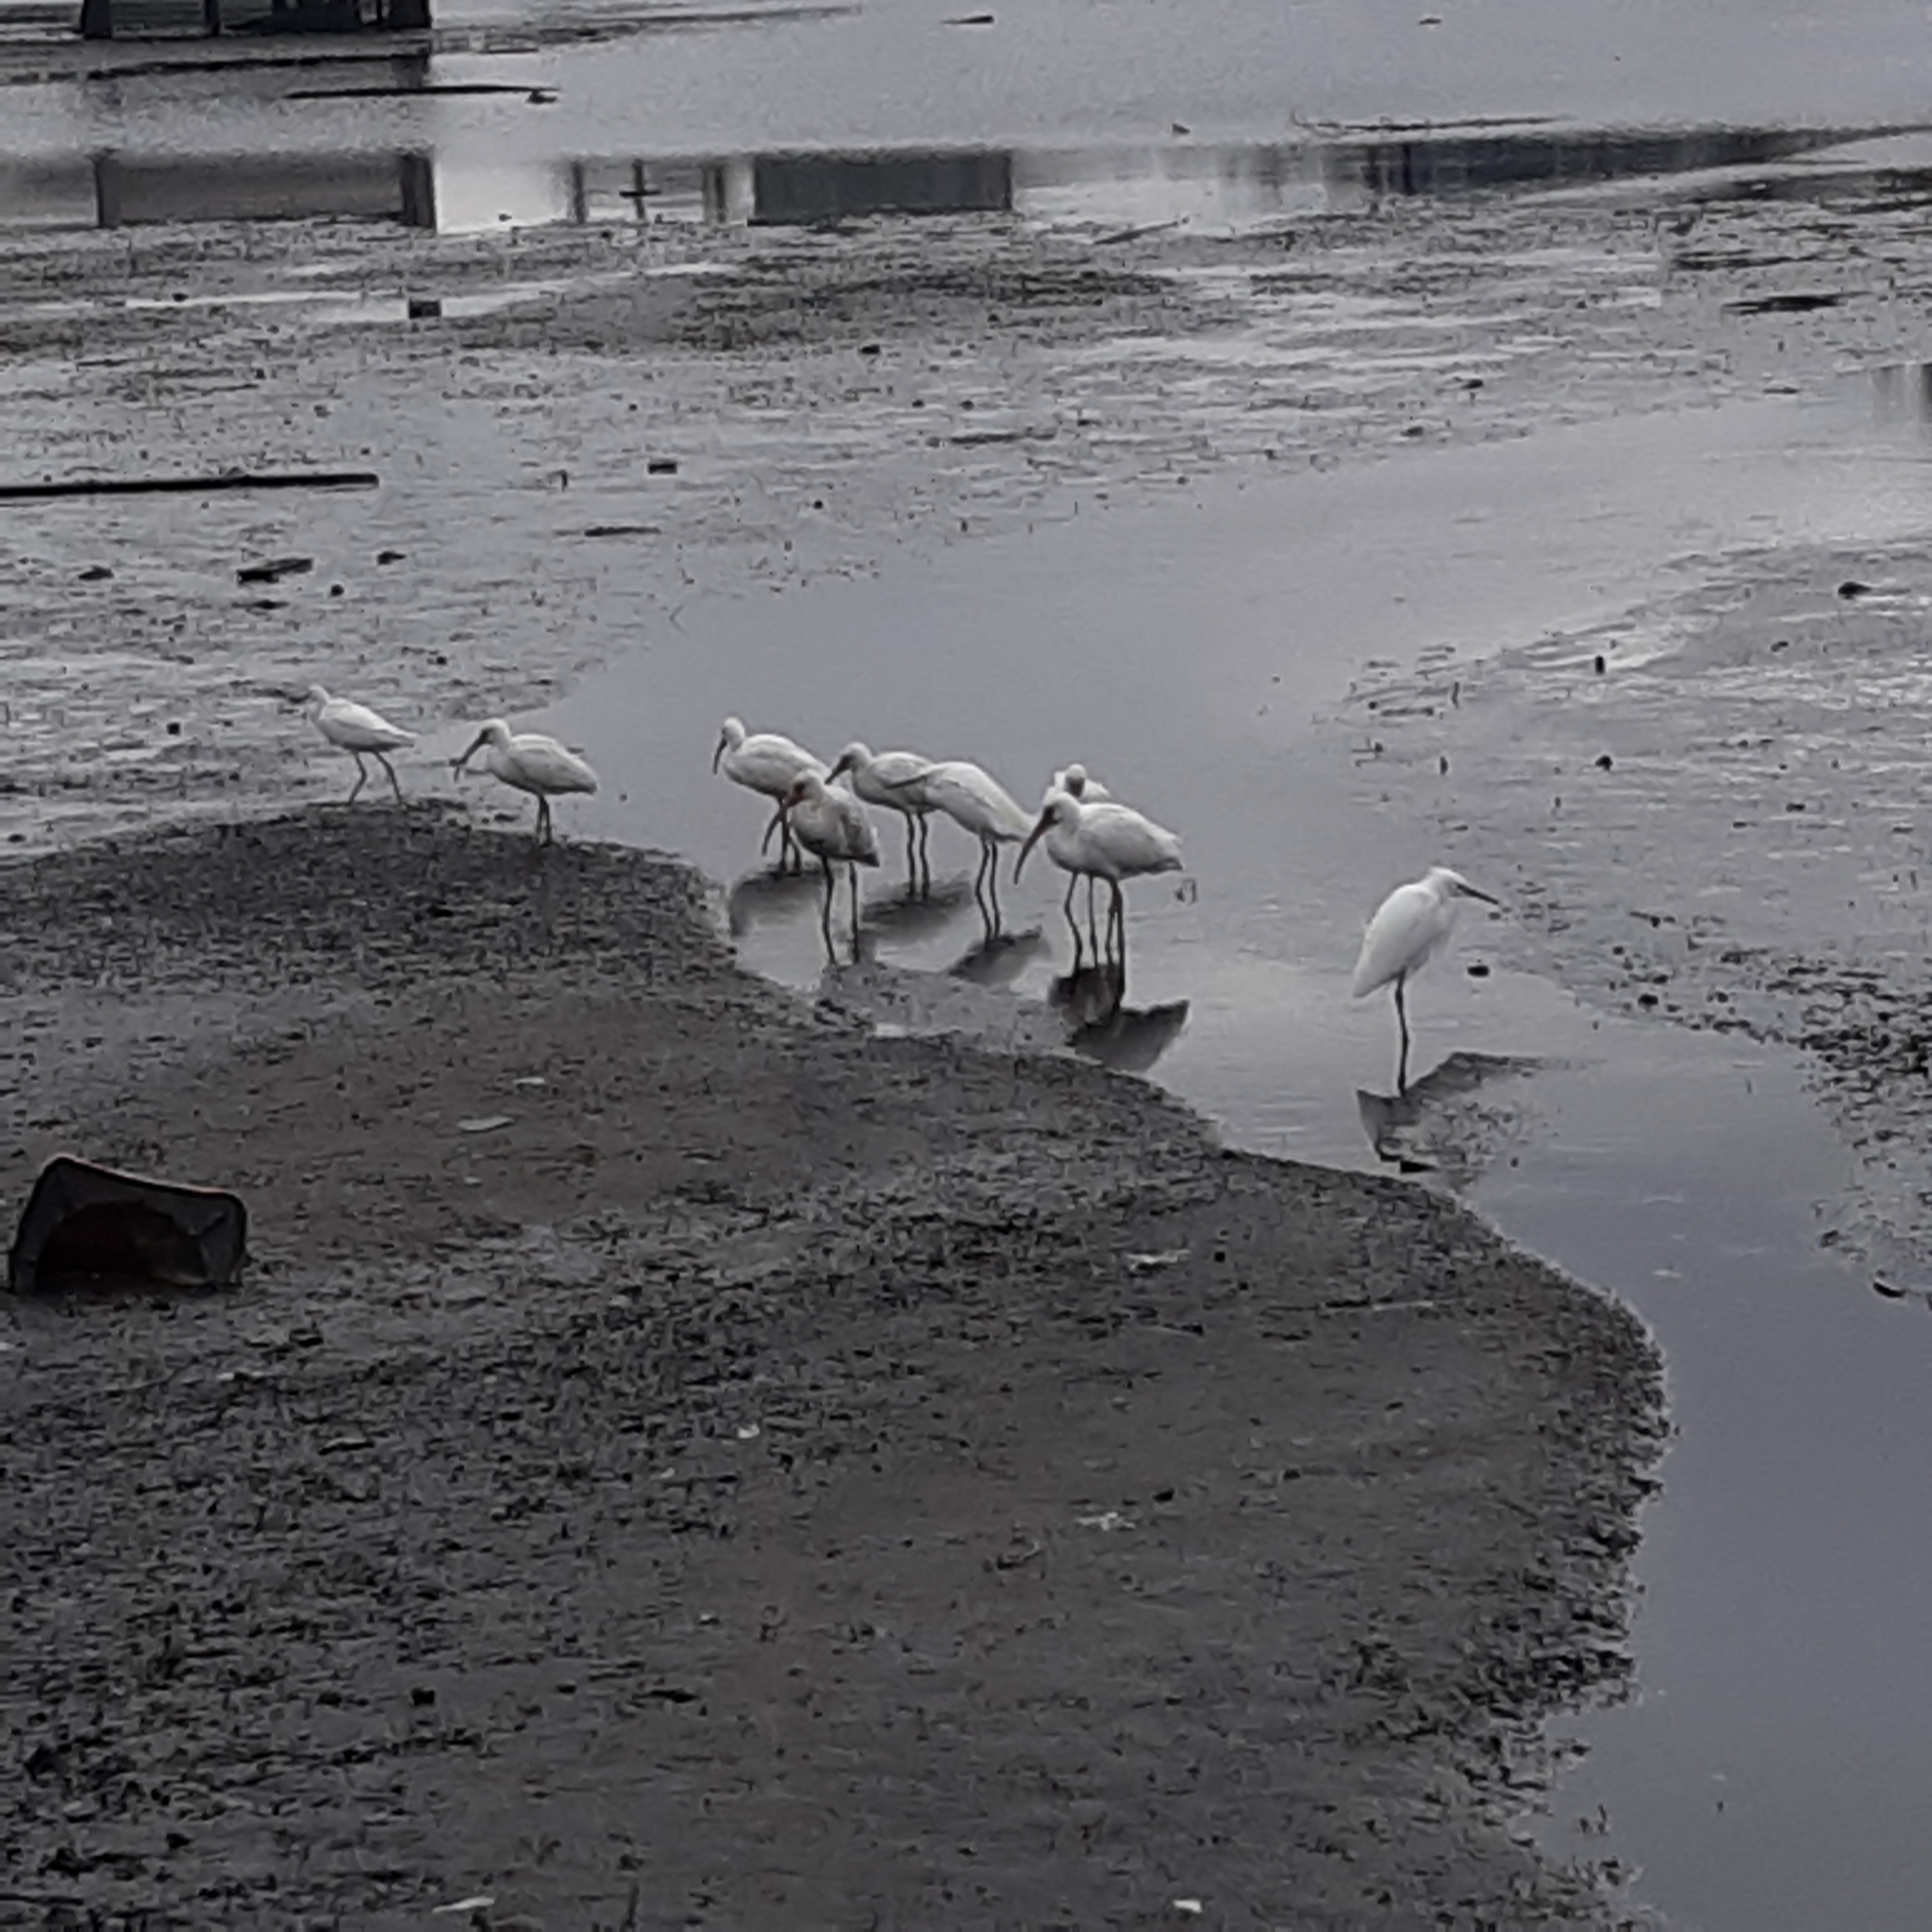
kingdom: Animalia
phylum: Chordata
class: Aves
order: Pelecaniformes
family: Threskiornithidae
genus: Eudocimus
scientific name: Eudocimus albus
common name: White ibis
